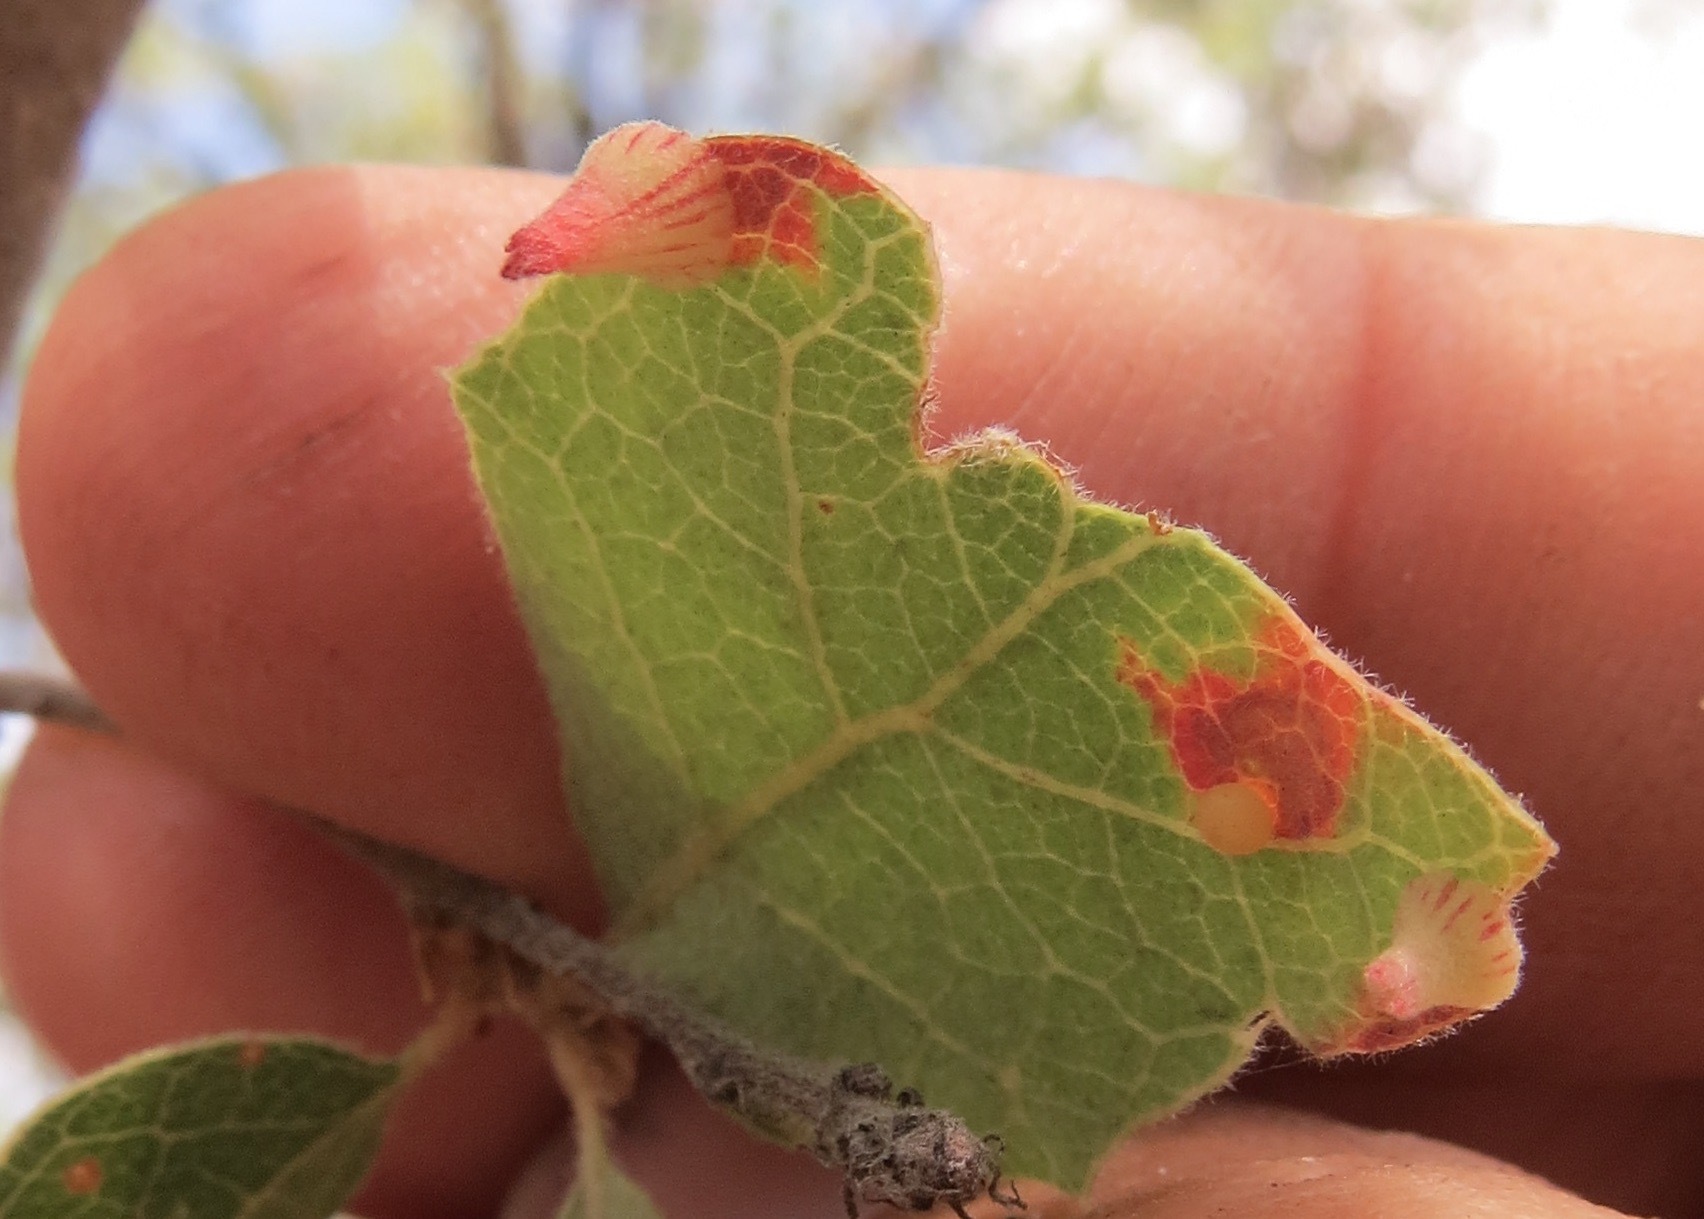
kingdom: Animalia
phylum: Arthropoda
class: Insecta
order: Hymenoptera
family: Cynipidae
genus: Andricus
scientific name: Andricus
